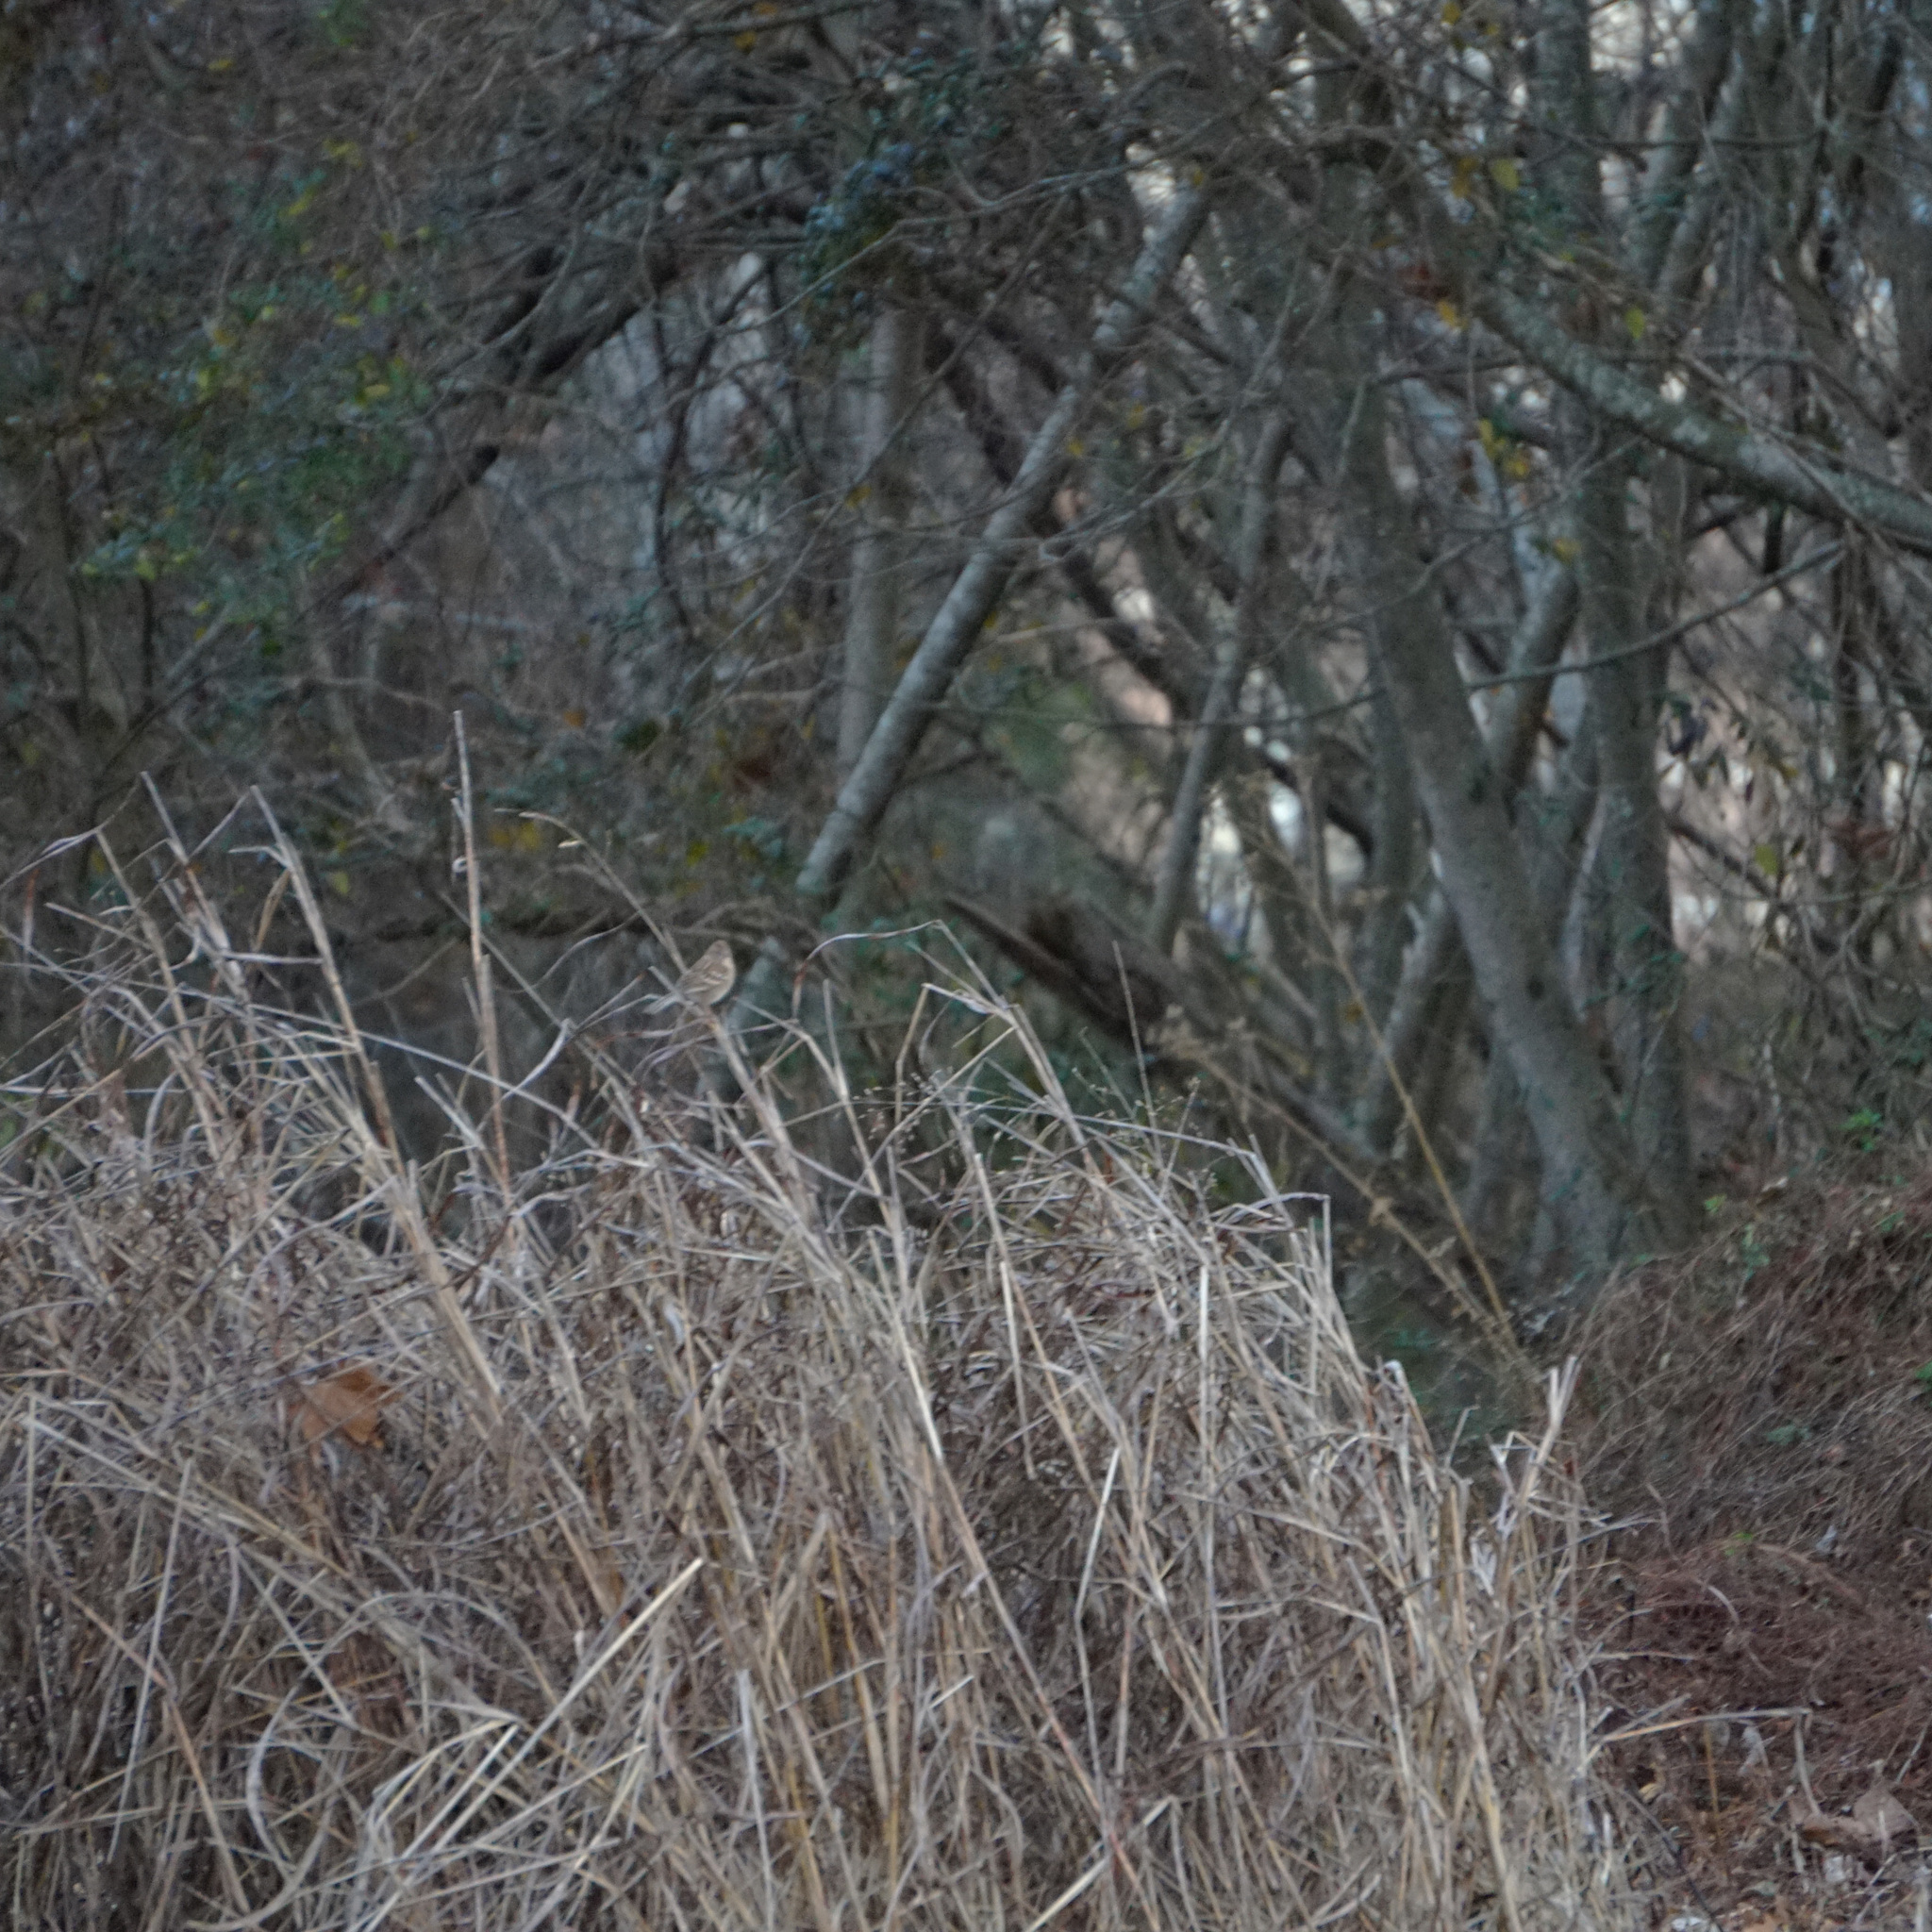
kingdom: Animalia
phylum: Chordata
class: Aves
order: Passeriformes
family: Passerellidae
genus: Spizella
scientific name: Spizella pusilla
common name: Field sparrow
